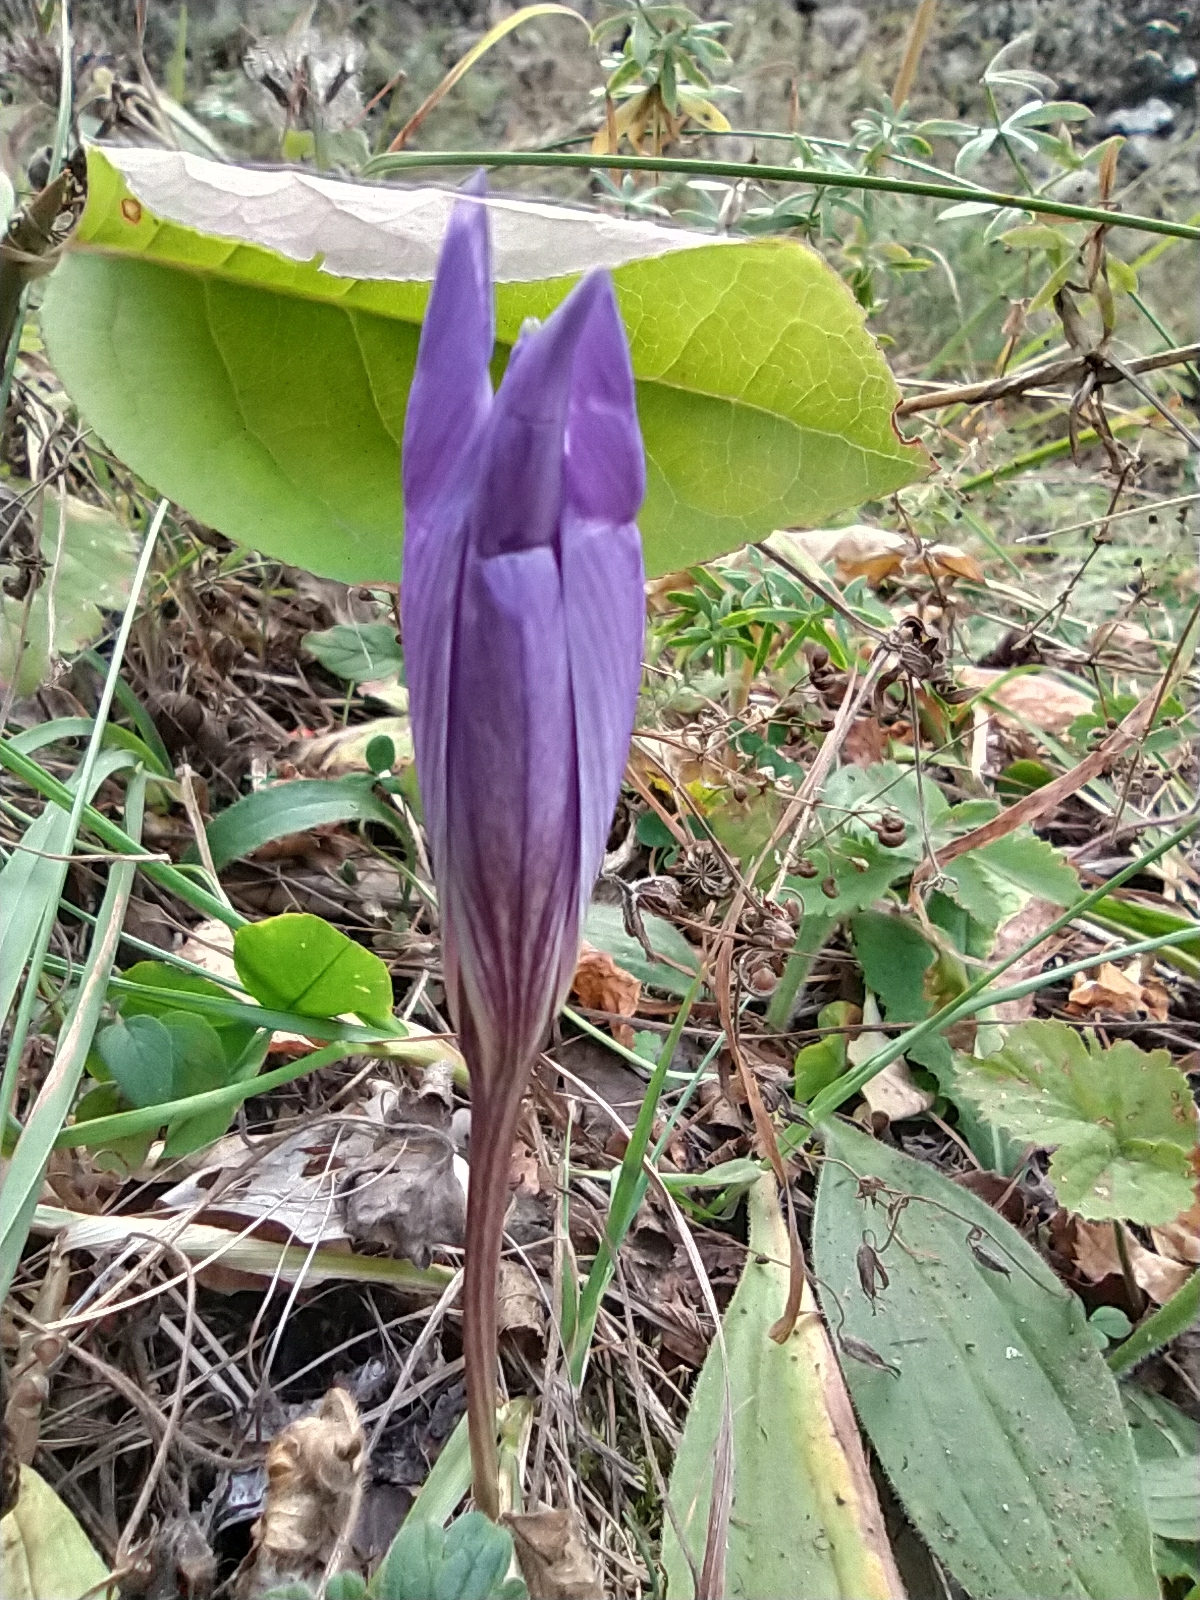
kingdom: Plantae
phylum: Tracheophyta
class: Liliopsida
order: Asparagales
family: Iridaceae
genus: Crocus
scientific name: Crocus speciosus
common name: Bieberstein's crocus
